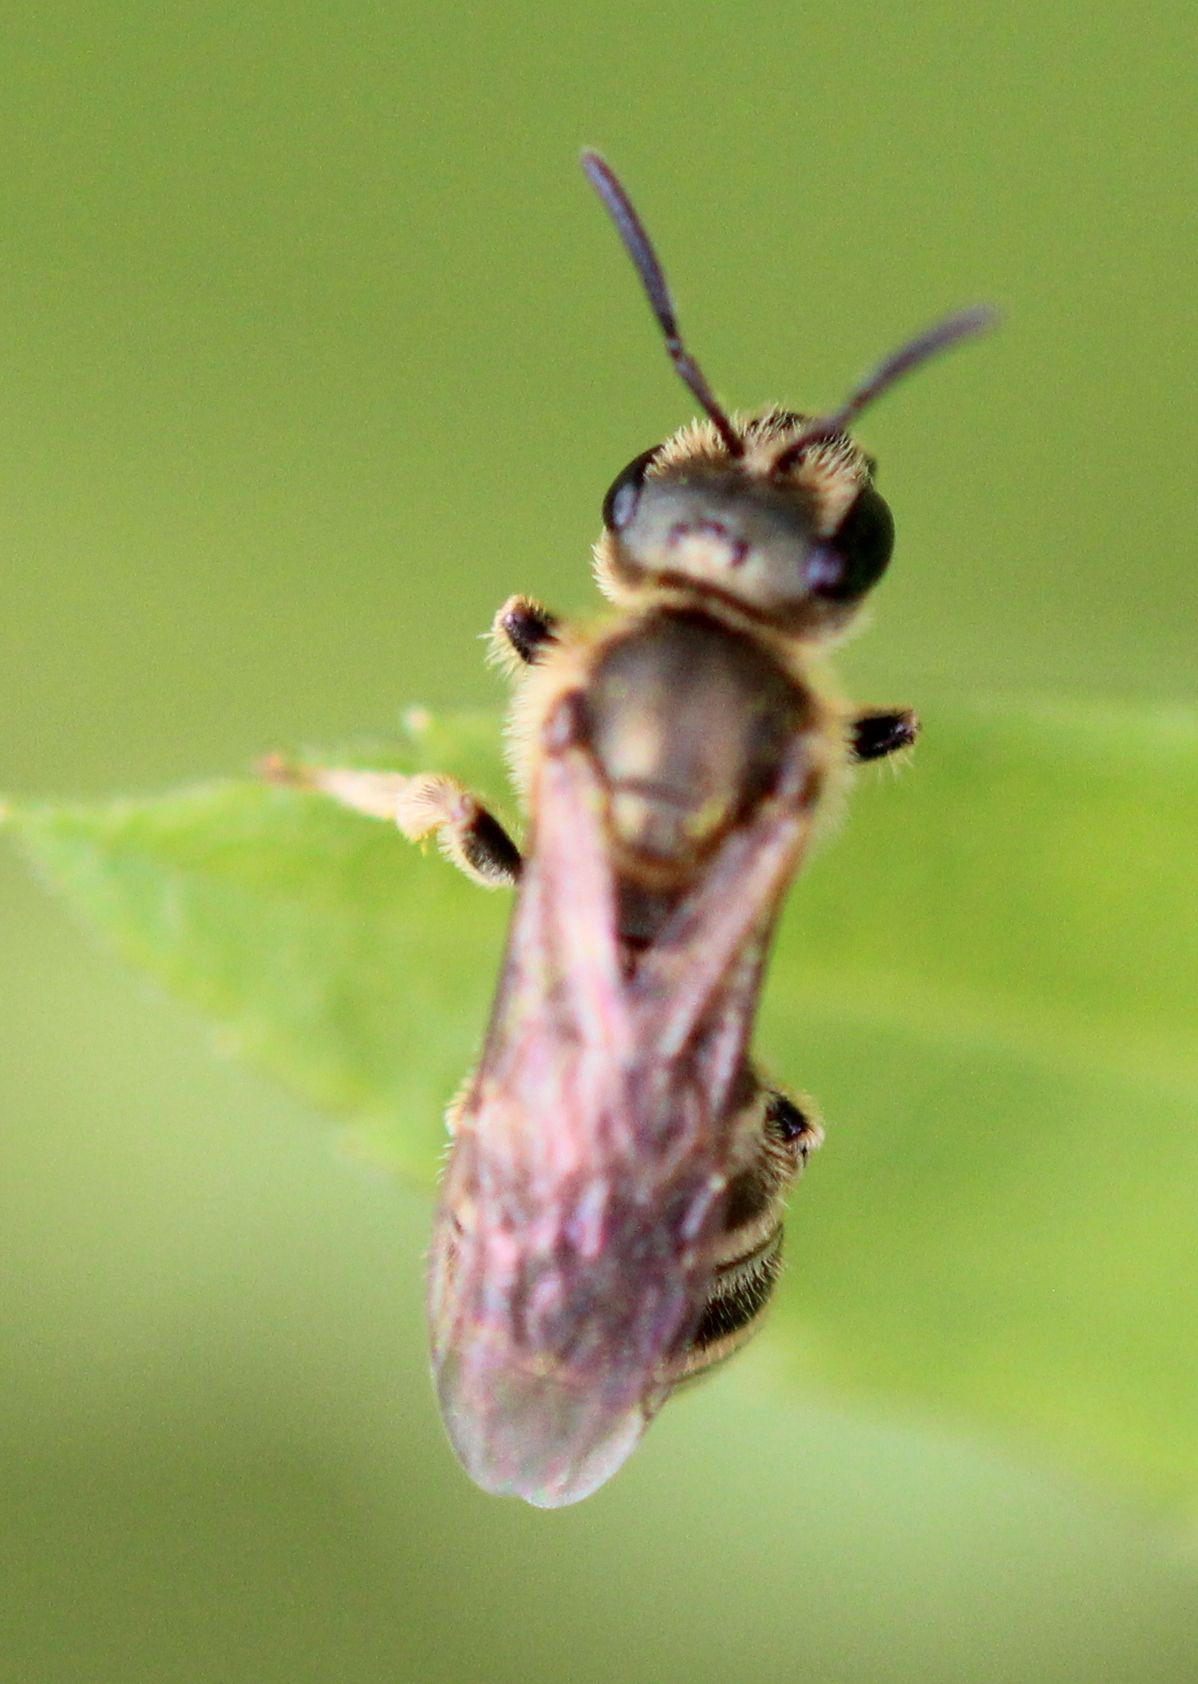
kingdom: Animalia
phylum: Arthropoda
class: Insecta
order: Hymenoptera
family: Halictidae
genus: Halictus
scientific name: Halictus confusus
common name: Southern bronze furrow bee
